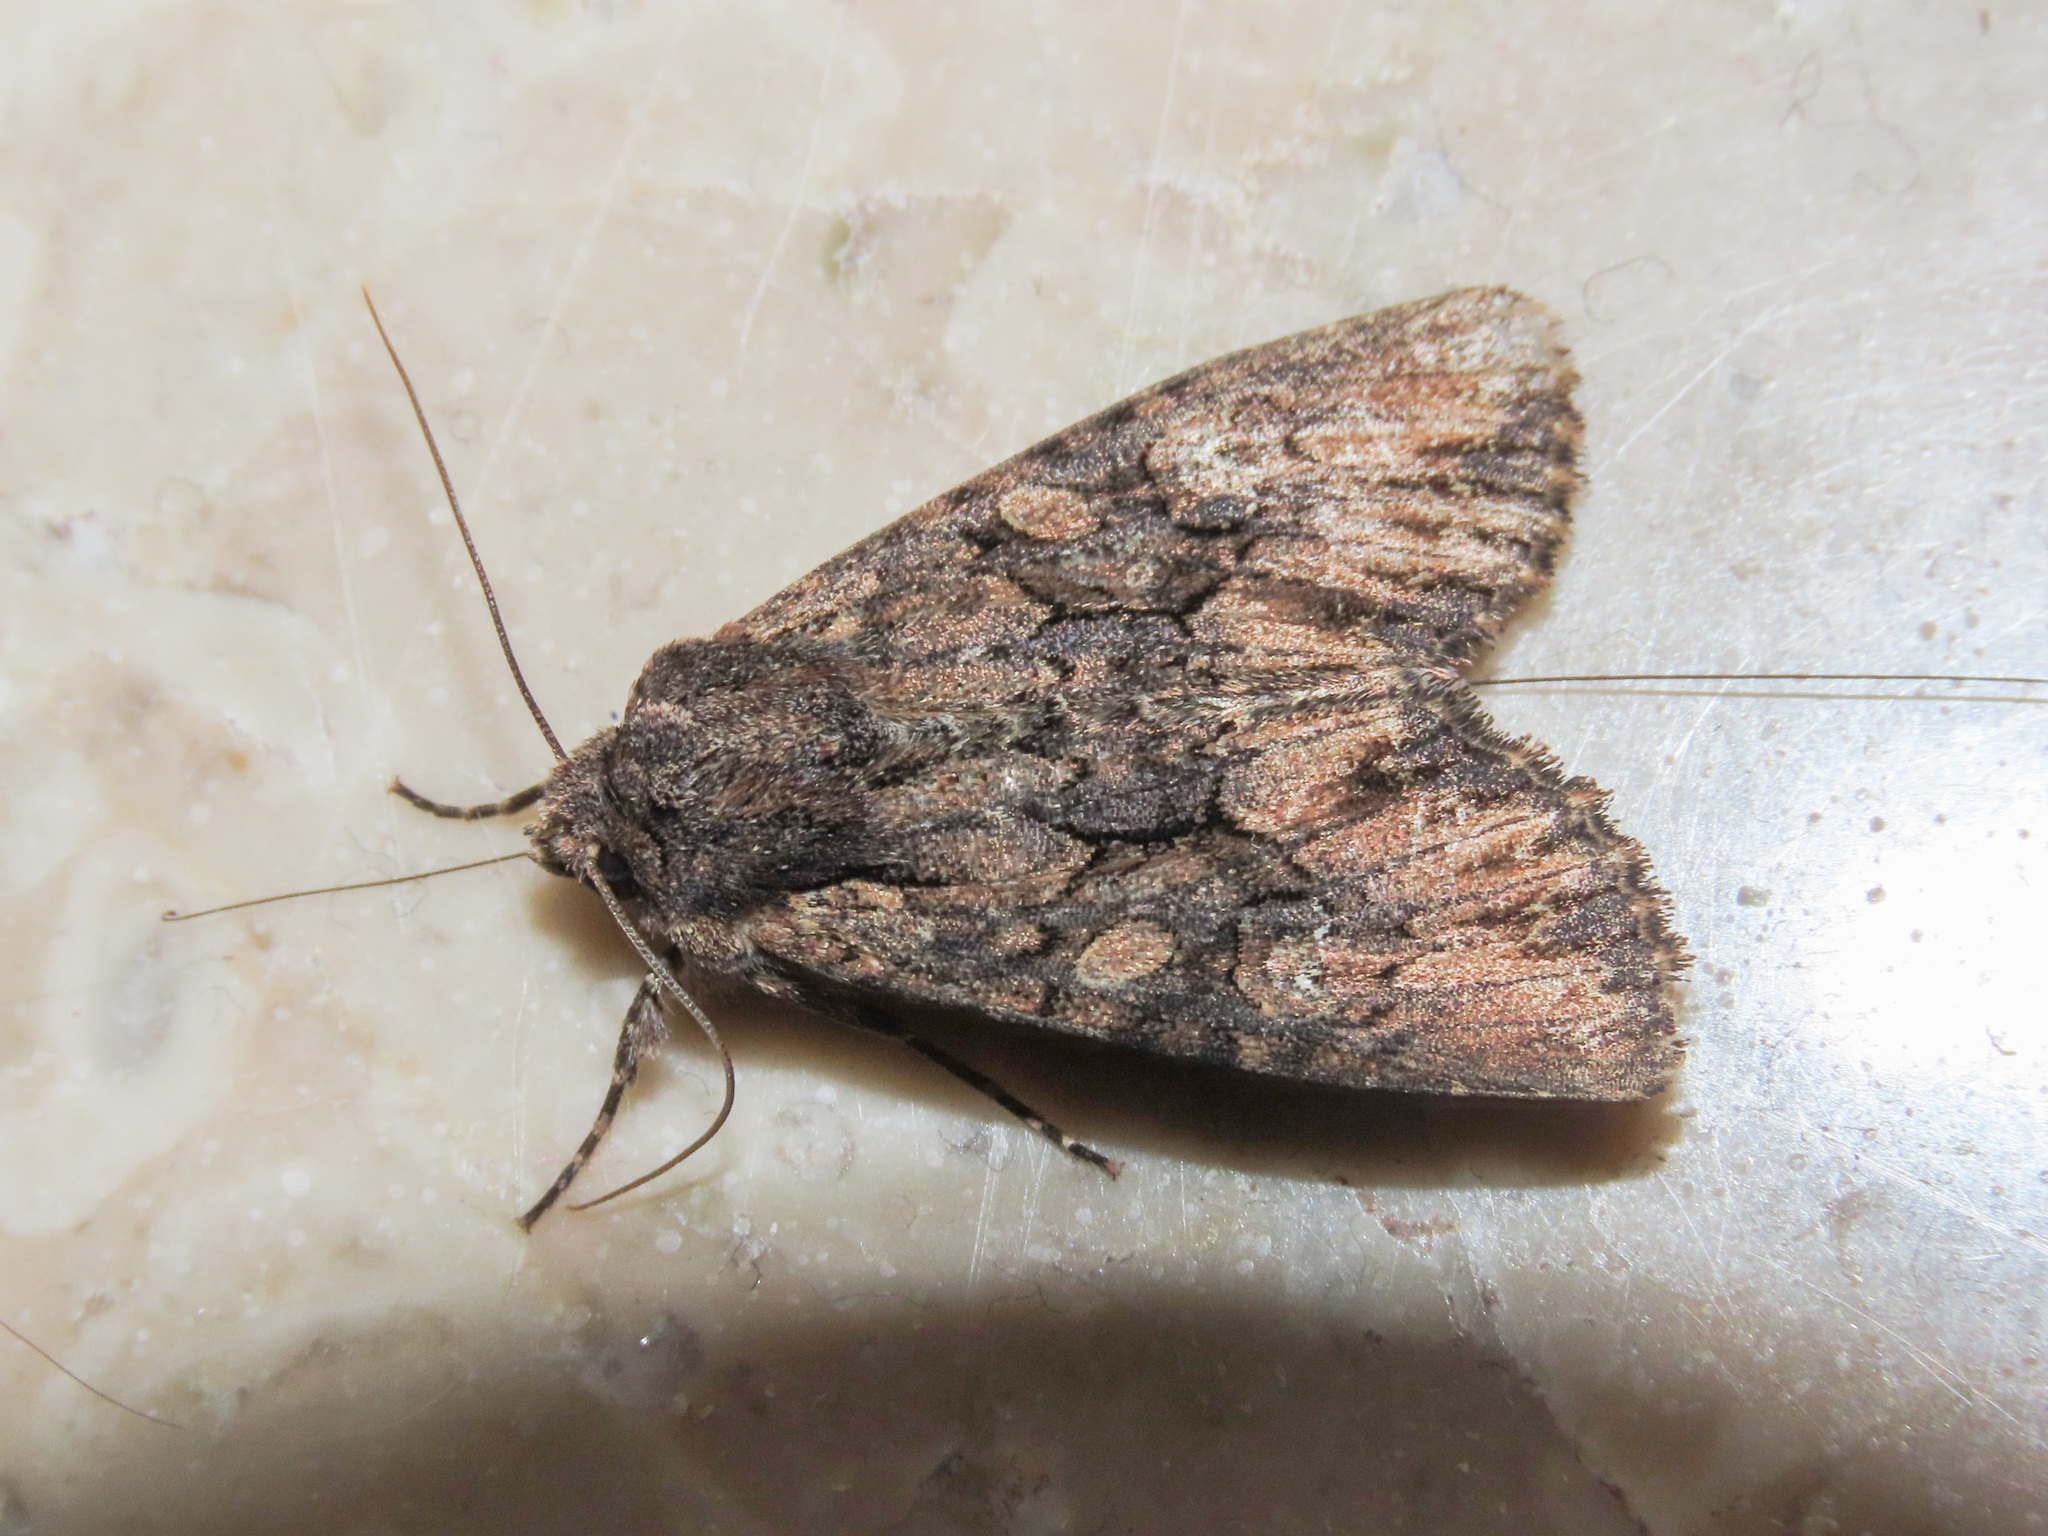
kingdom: Animalia
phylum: Arthropoda
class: Insecta
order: Lepidoptera
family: Noctuidae
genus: Mniotype
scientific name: Mniotype solieri
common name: Bedrule brocade
